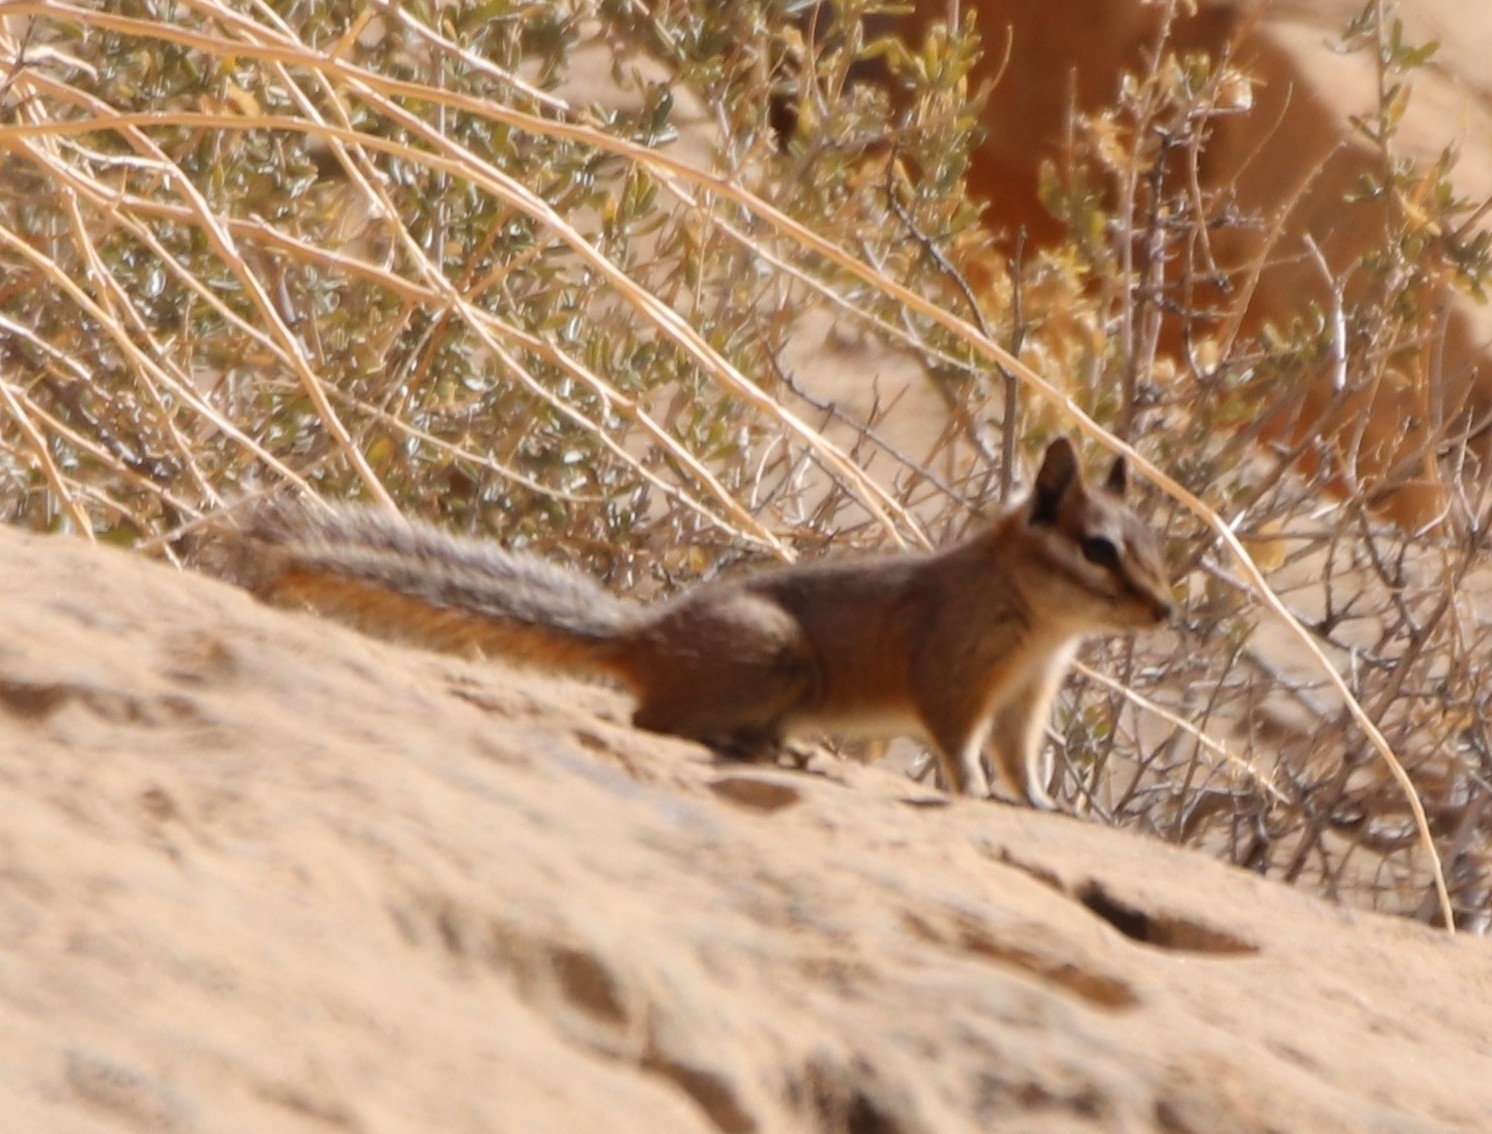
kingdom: Animalia
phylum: Chordata
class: Mammalia
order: Rodentia
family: Sciuridae
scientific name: Sciuridae
